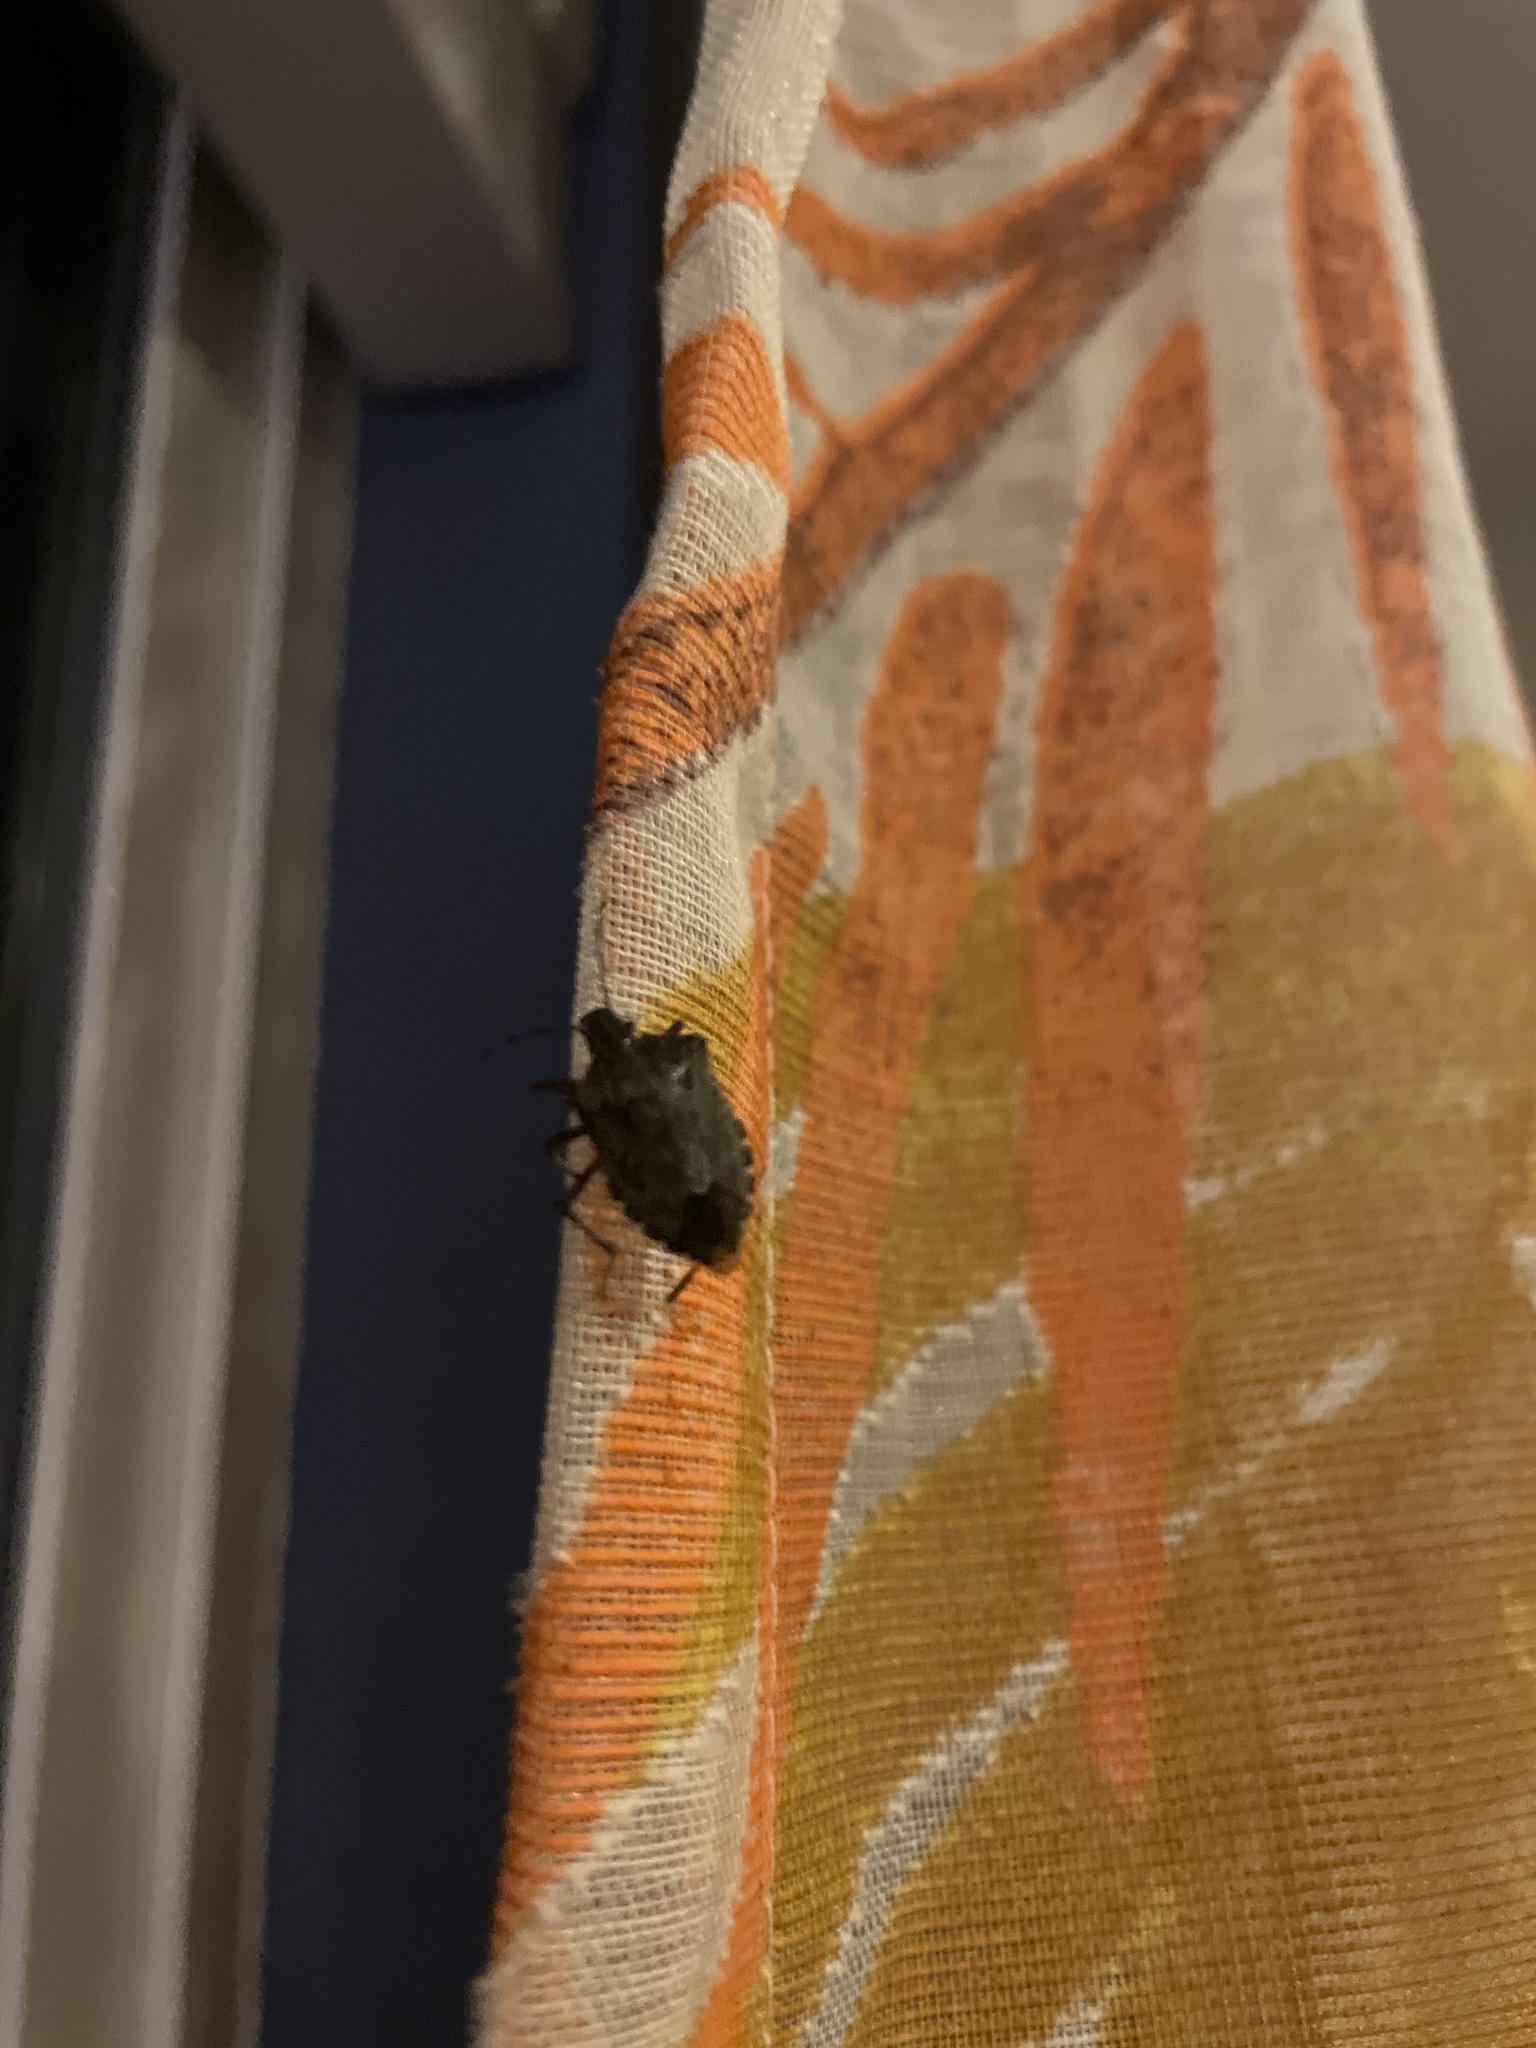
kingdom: Animalia
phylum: Arthropoda
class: Insecta
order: Hemiptera
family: Pentatomidae
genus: Halyomorpha
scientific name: Halyomorpha halys
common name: Brown marmorated stink bug
